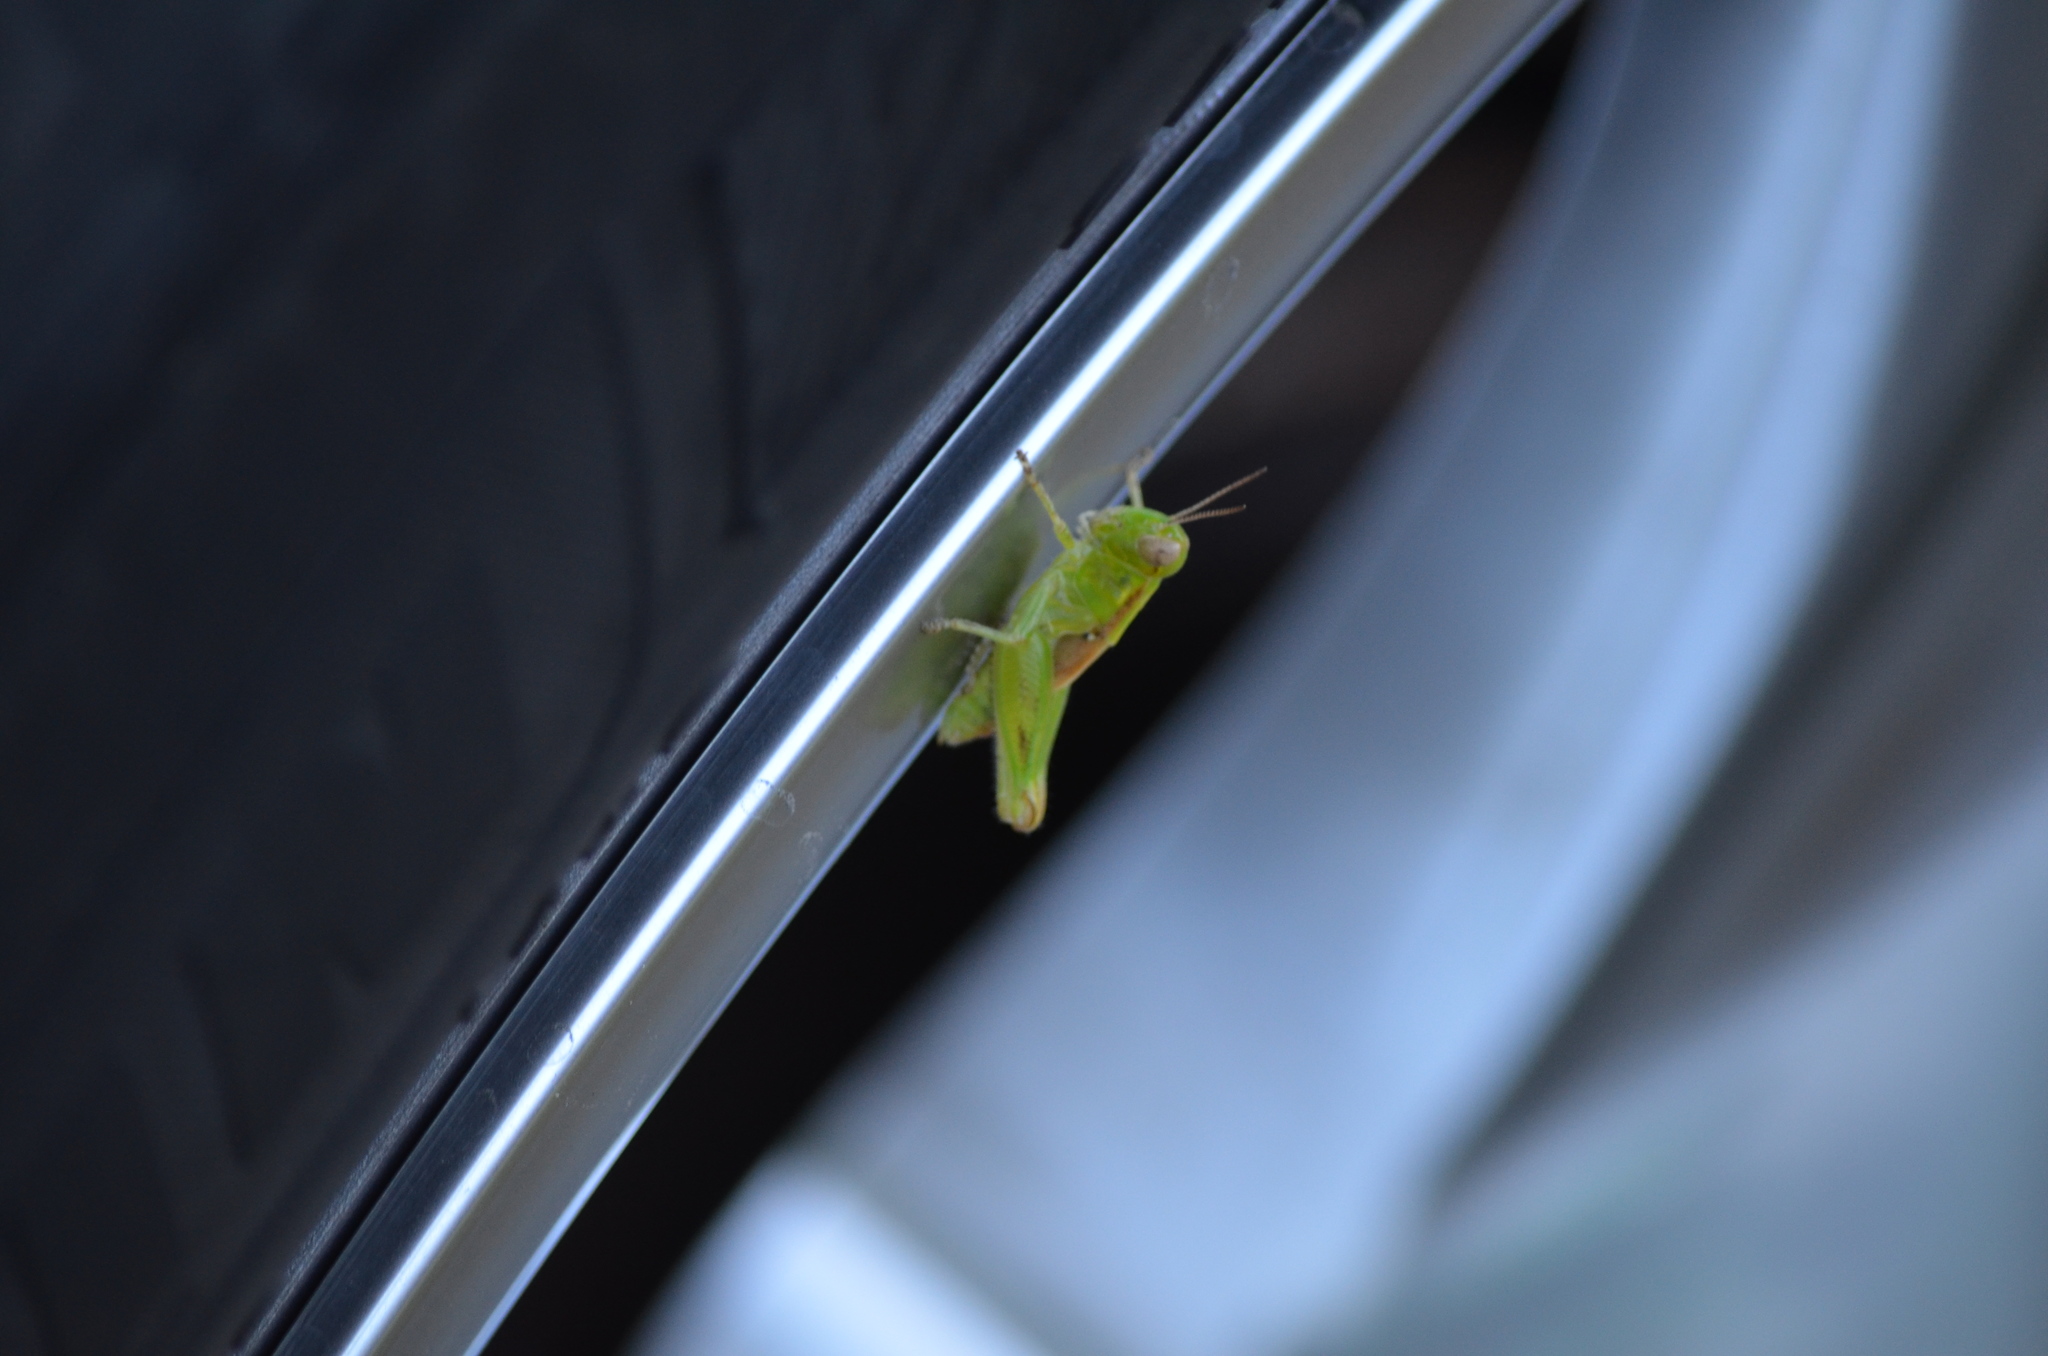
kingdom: Animalia
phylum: Arthropoda
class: Insecta
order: Orthoptera
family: Acrididae
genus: Melanoplus
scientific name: Melanoplus sanguinipes
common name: Migratory grasshopper
